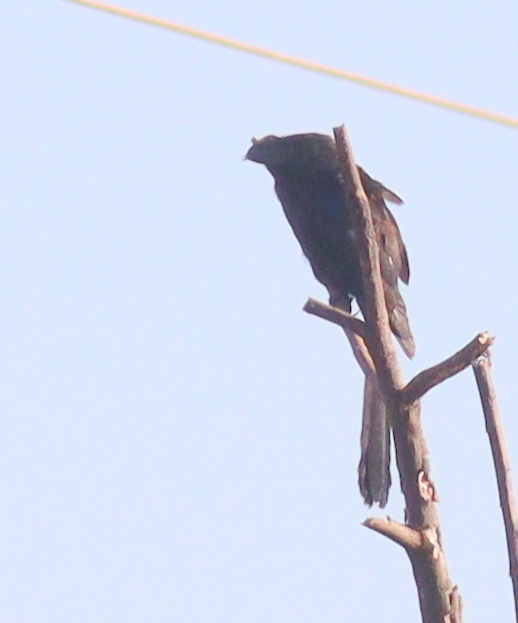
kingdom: Animalia
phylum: Chordata
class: Aves
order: Cuculiformes
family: Cuculidae
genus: Crotophaga
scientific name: Crotophaga ani
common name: Smooth-billed ani
